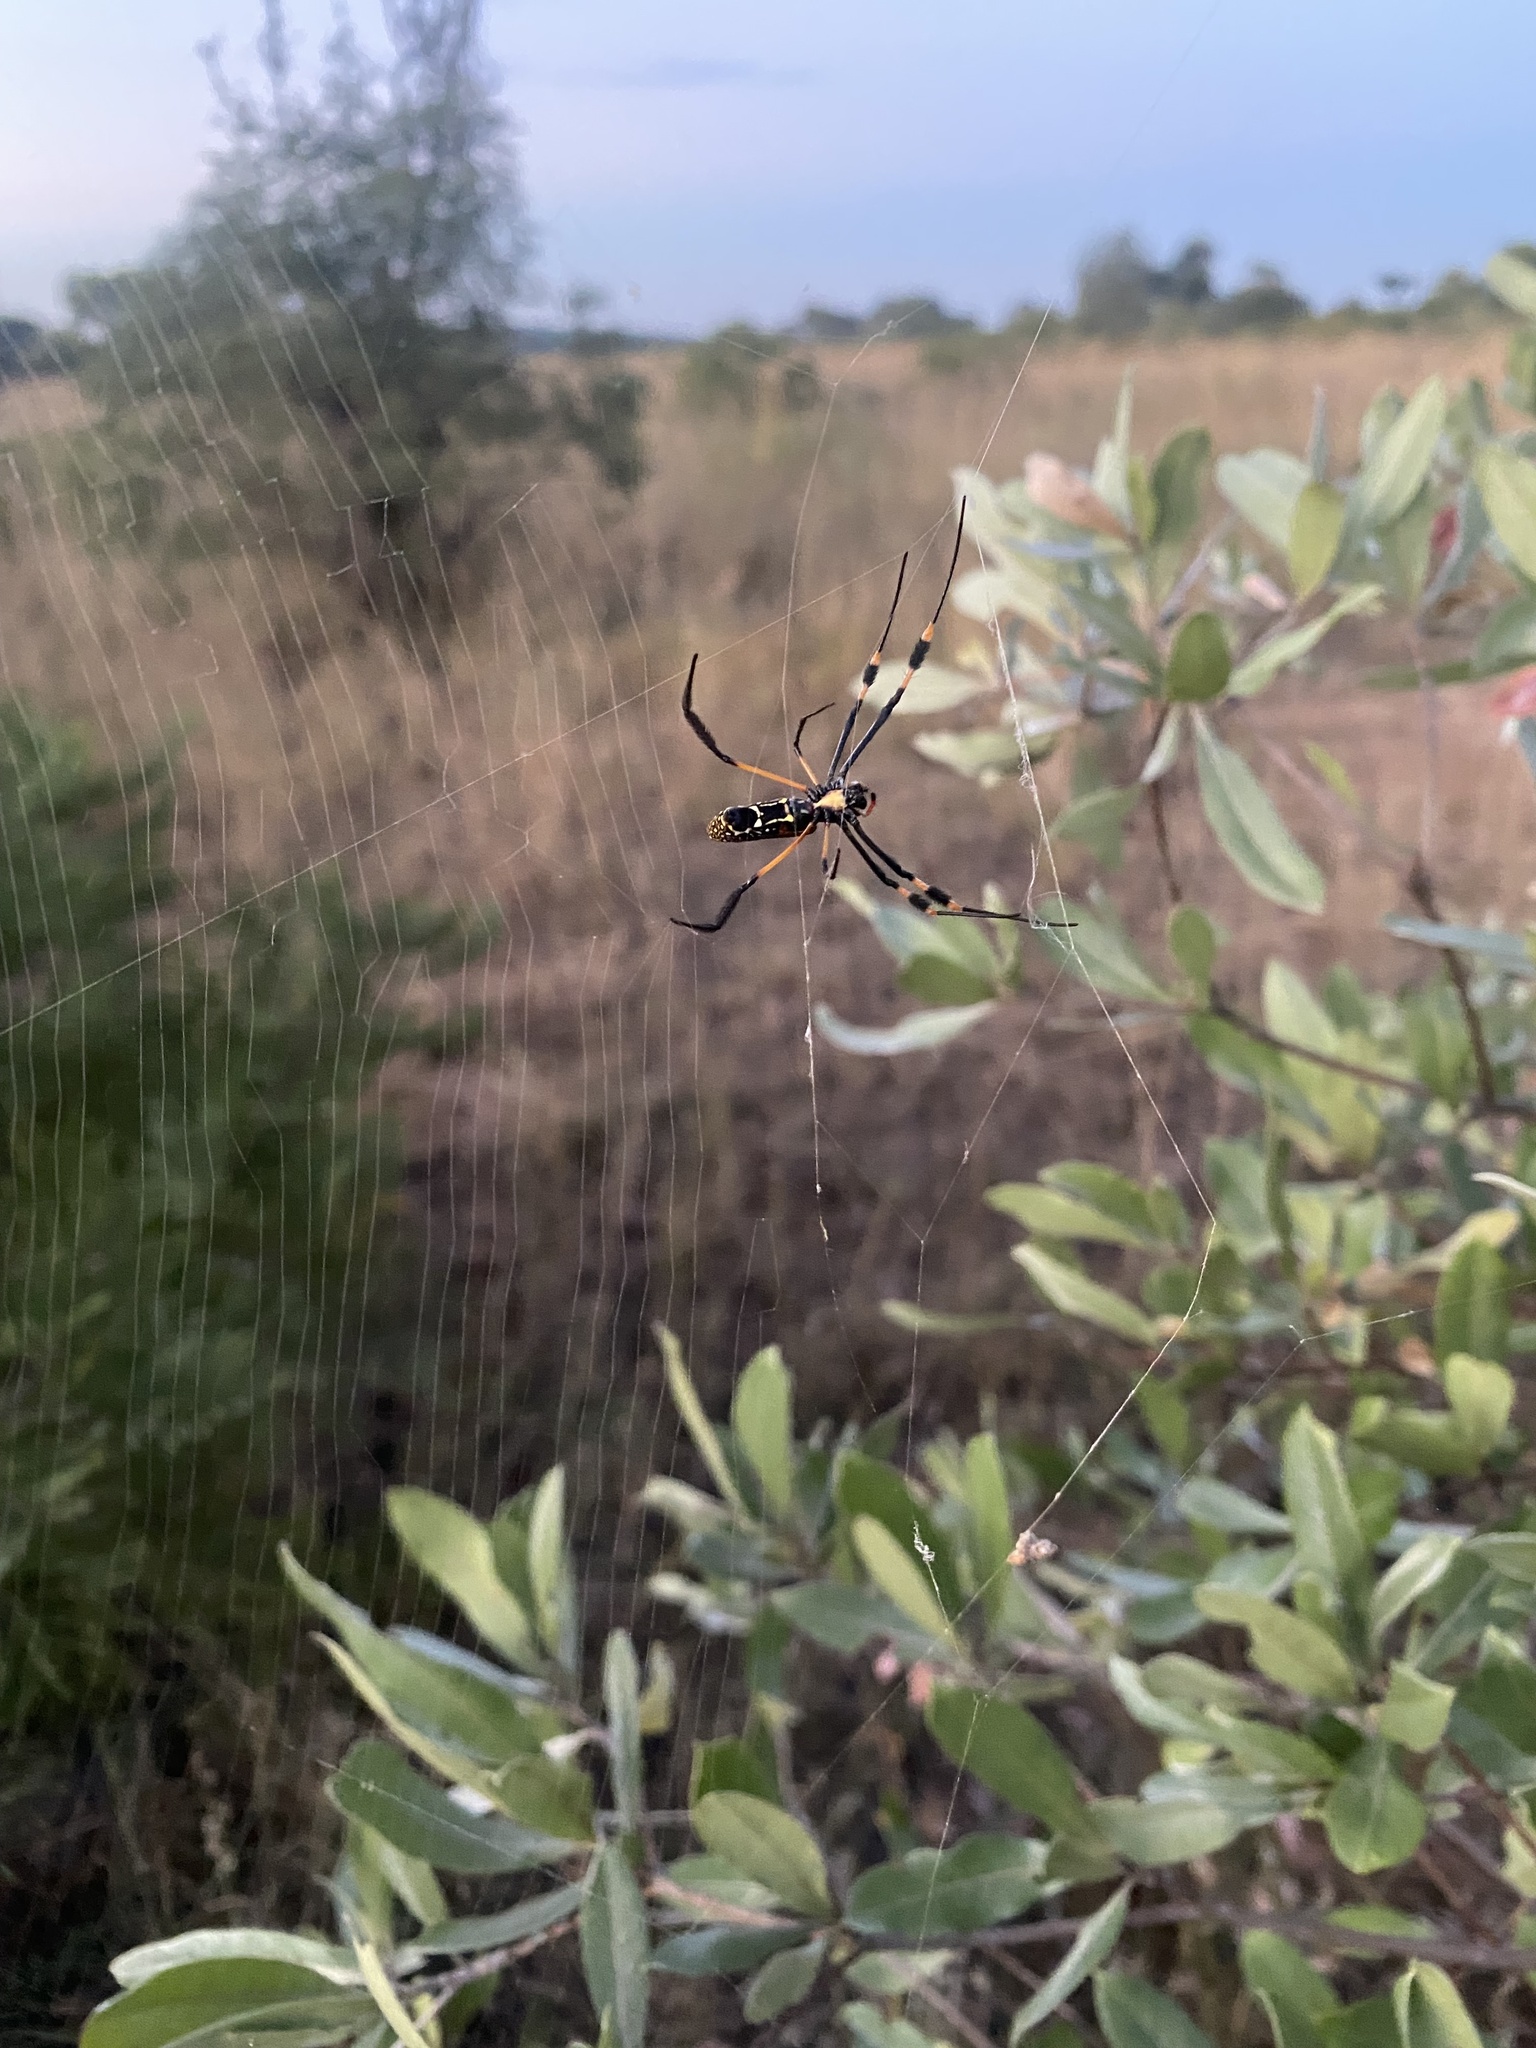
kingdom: Animalia
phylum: Arthropoda
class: Arachnida
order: Araneae
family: Araneidae
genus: Trichonephila
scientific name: Trichonephila senegalensis
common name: Banded golden orb weaver
